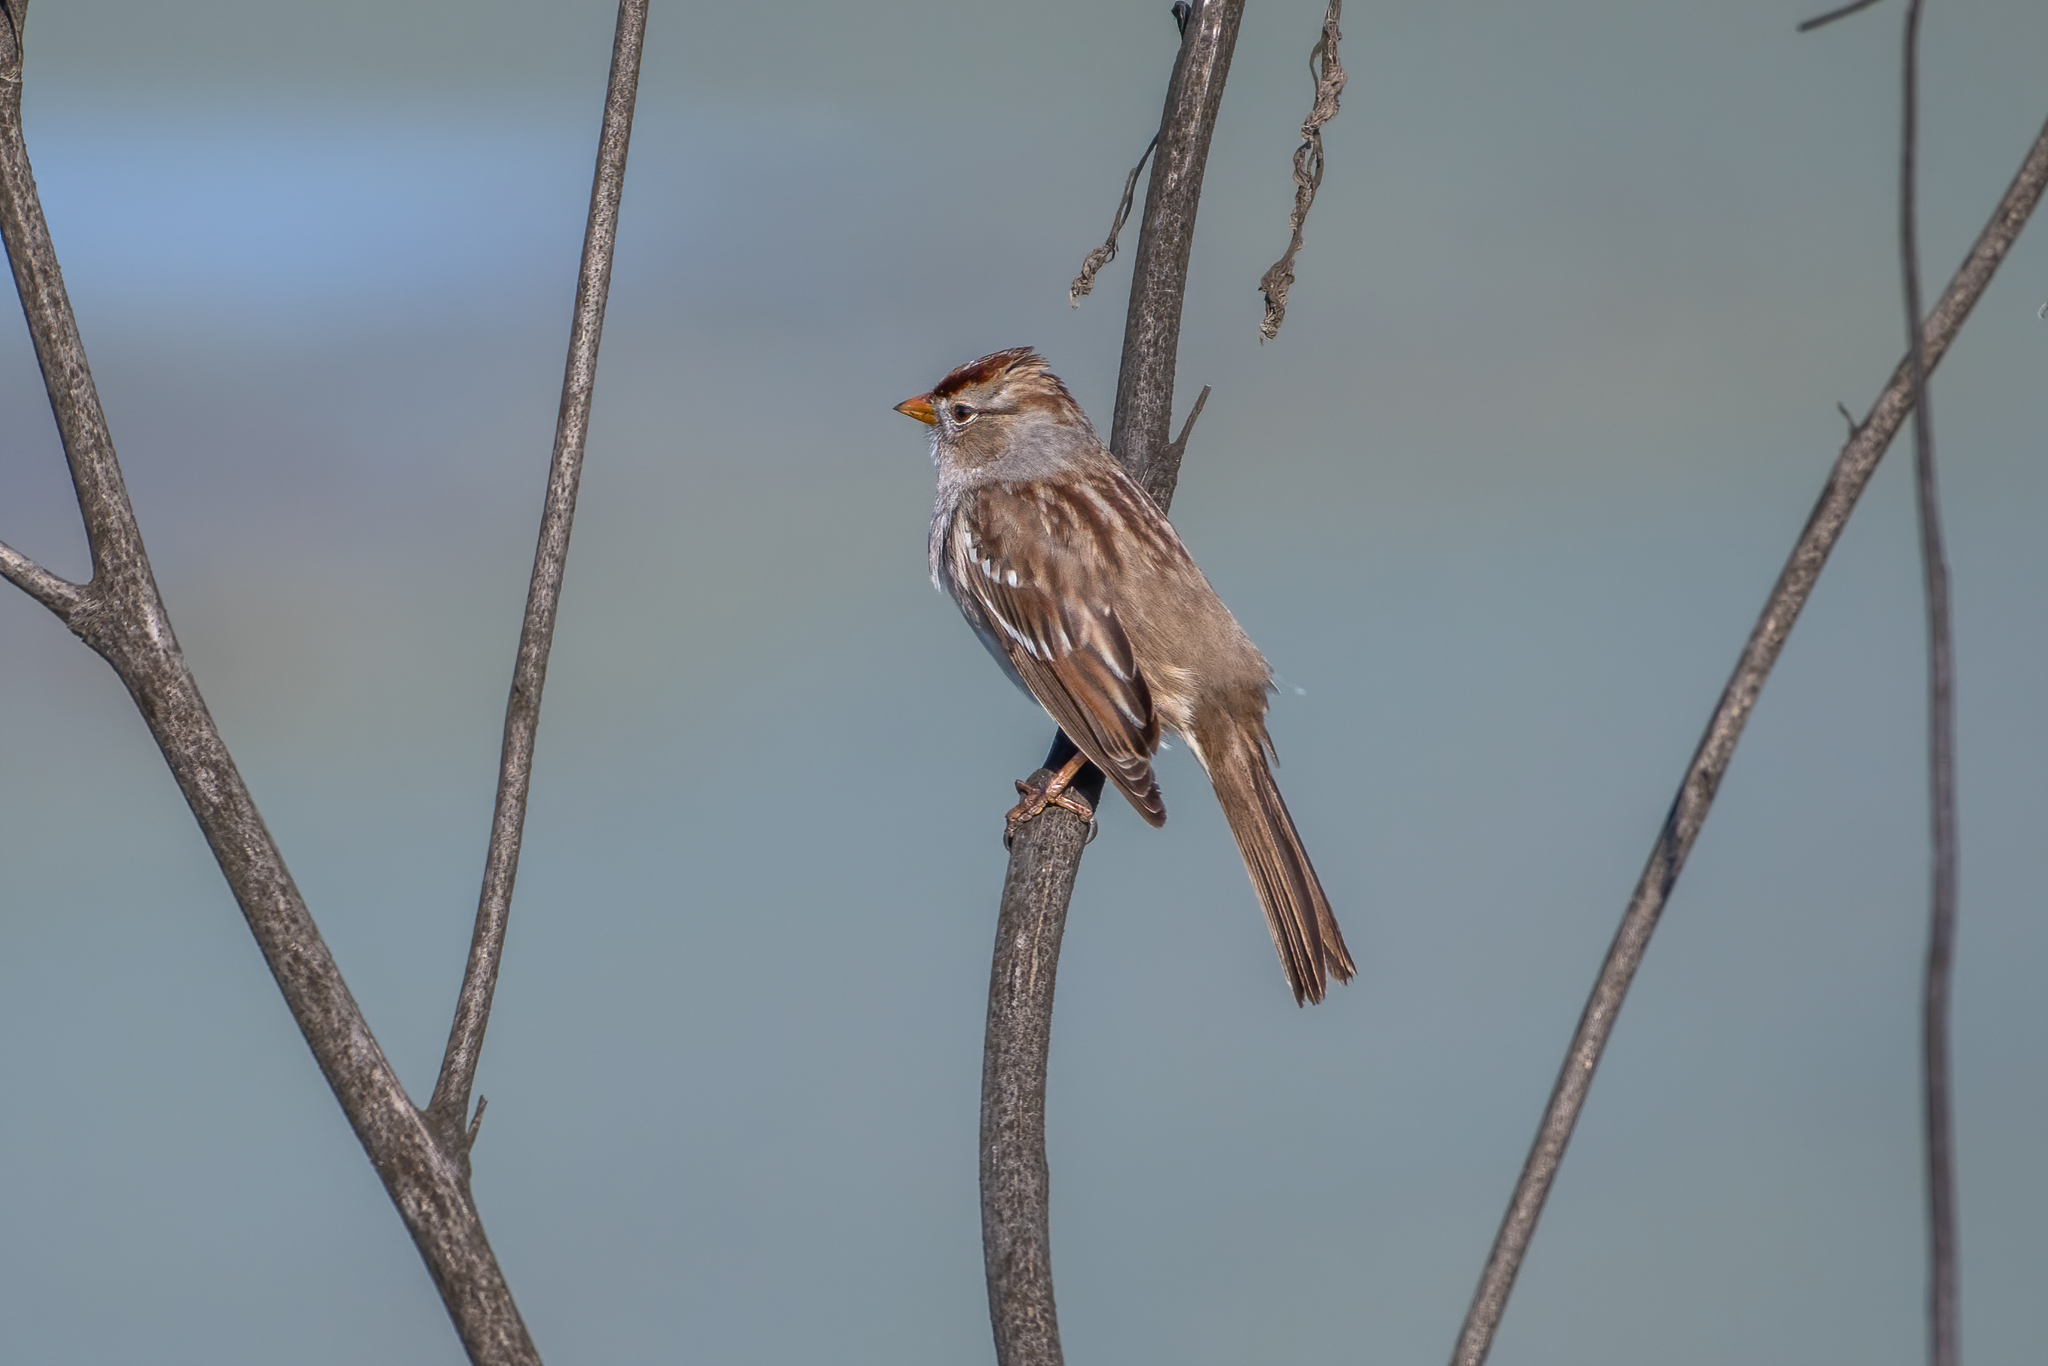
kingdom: Animalia
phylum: Chordata
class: Aves
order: Passeriformes
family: Passerellidae
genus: Zonotrichia
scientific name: Zonotrichia leucophrys
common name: White-crowned sparrow
